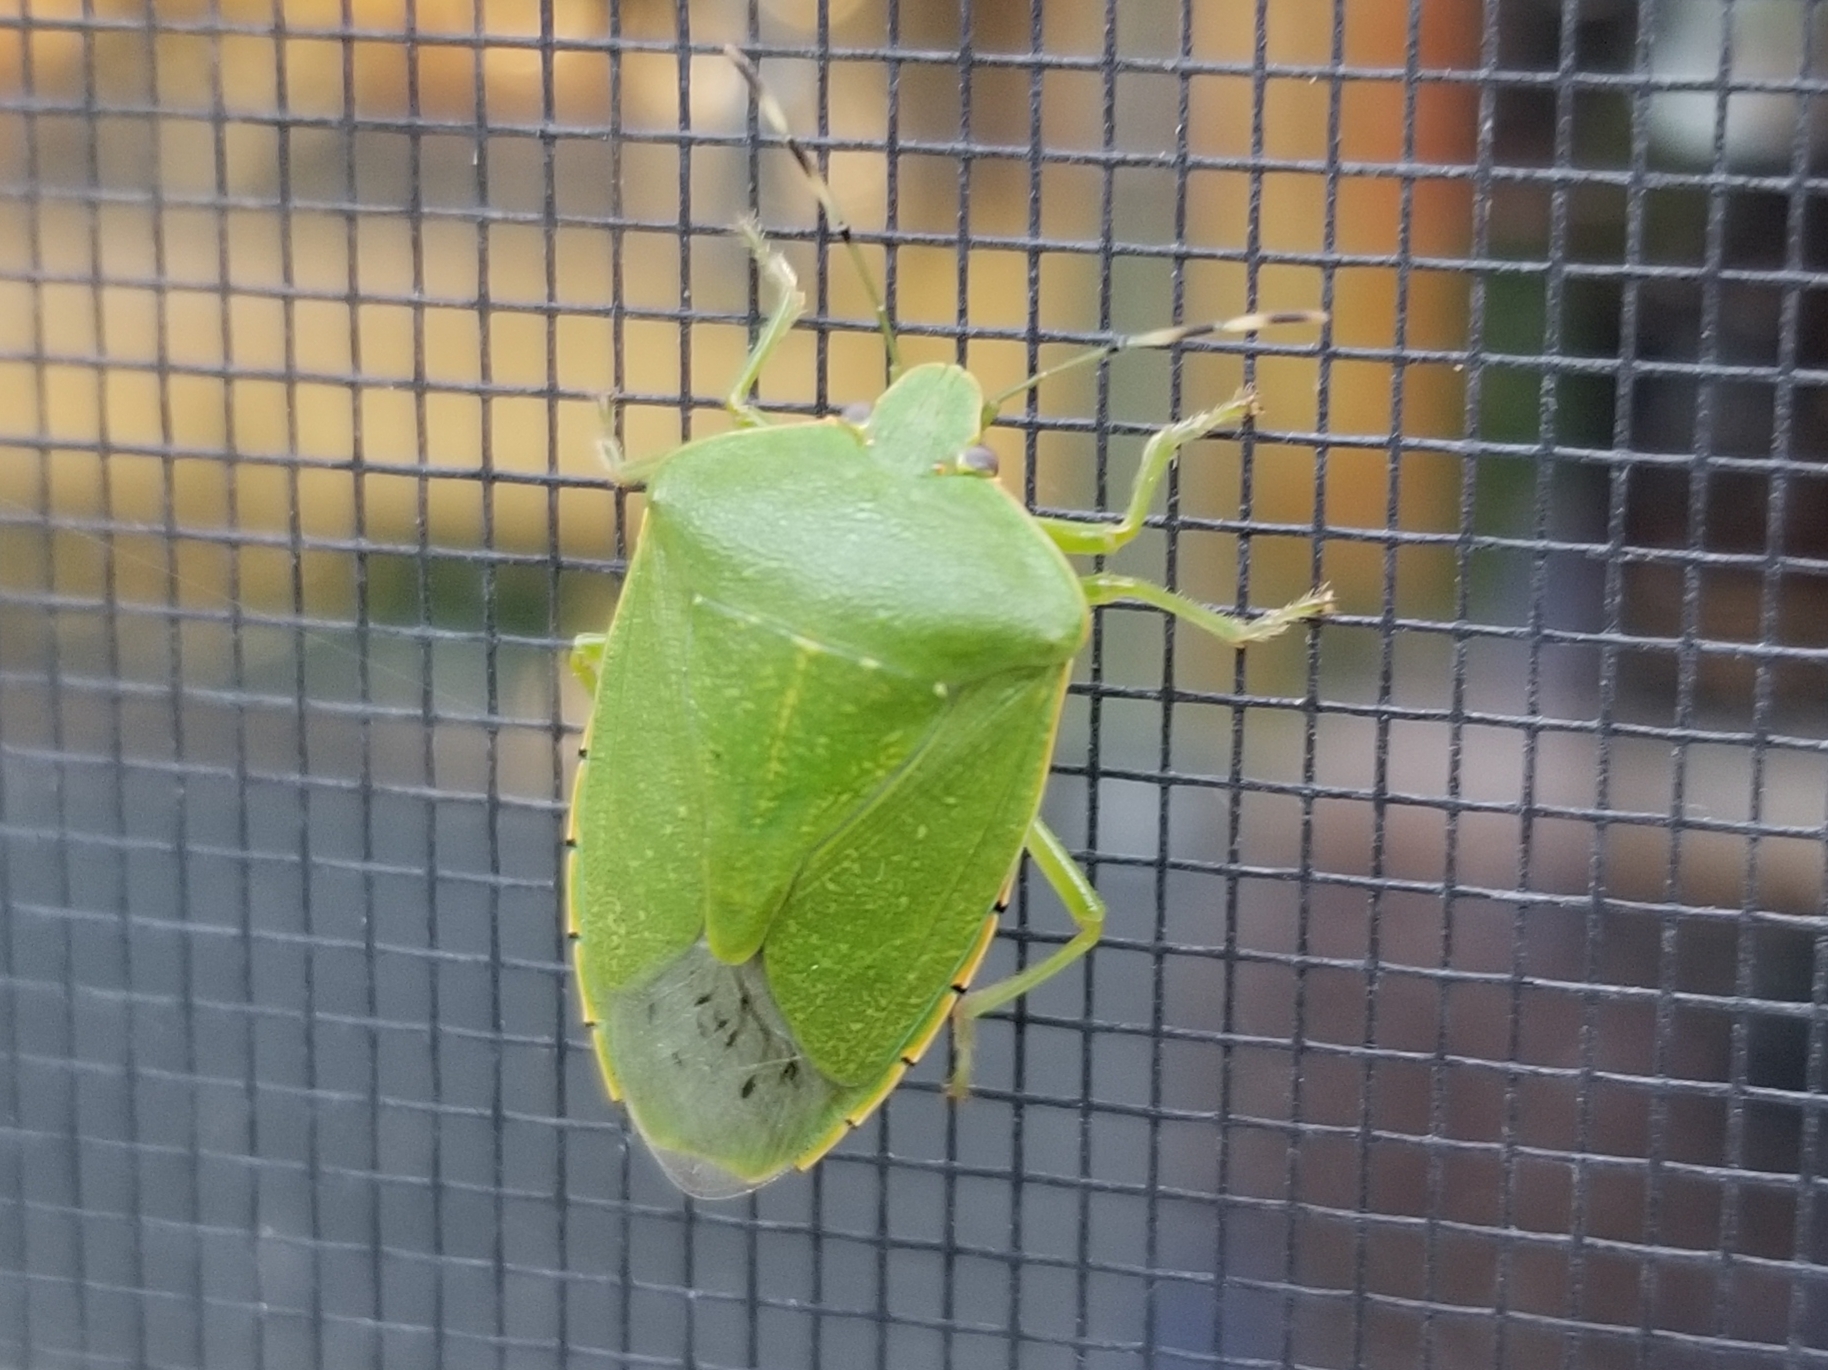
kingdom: Animalia
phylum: Arthropoda
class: Insecta
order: Hemiptera
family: Pentatomidae
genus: Chinavia
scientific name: Chinavia hilaris
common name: Green stink bug
